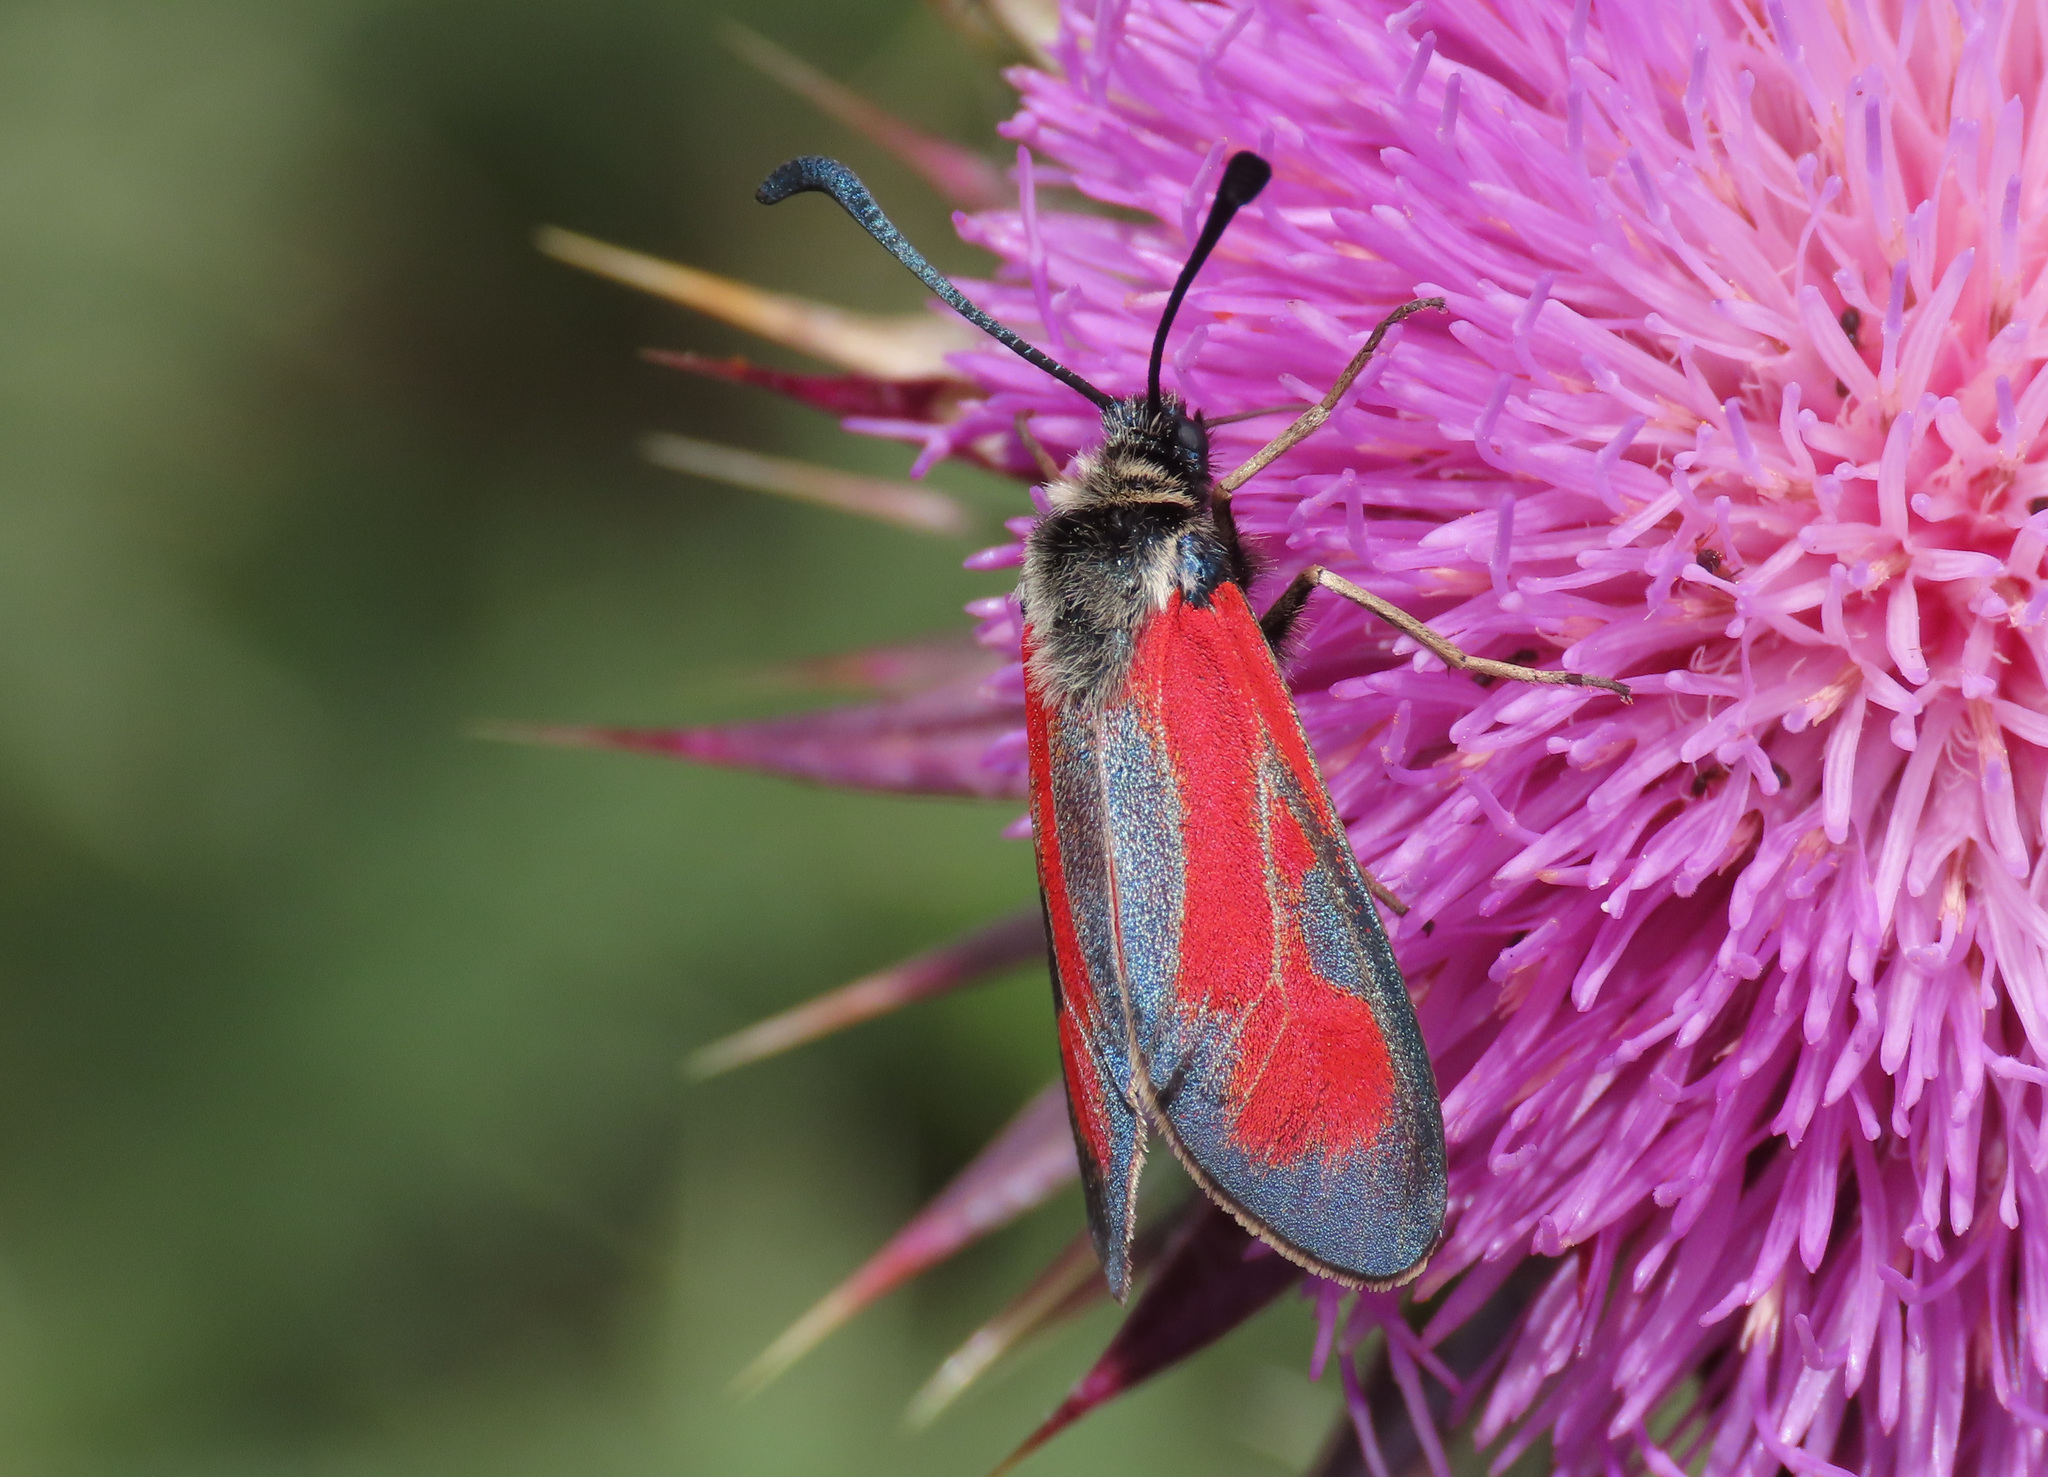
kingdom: Animalia
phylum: Arthropoda
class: Insecta
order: Lepidoptera
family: Zygaenidae
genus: Zygaena
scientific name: Zygaena punctum
